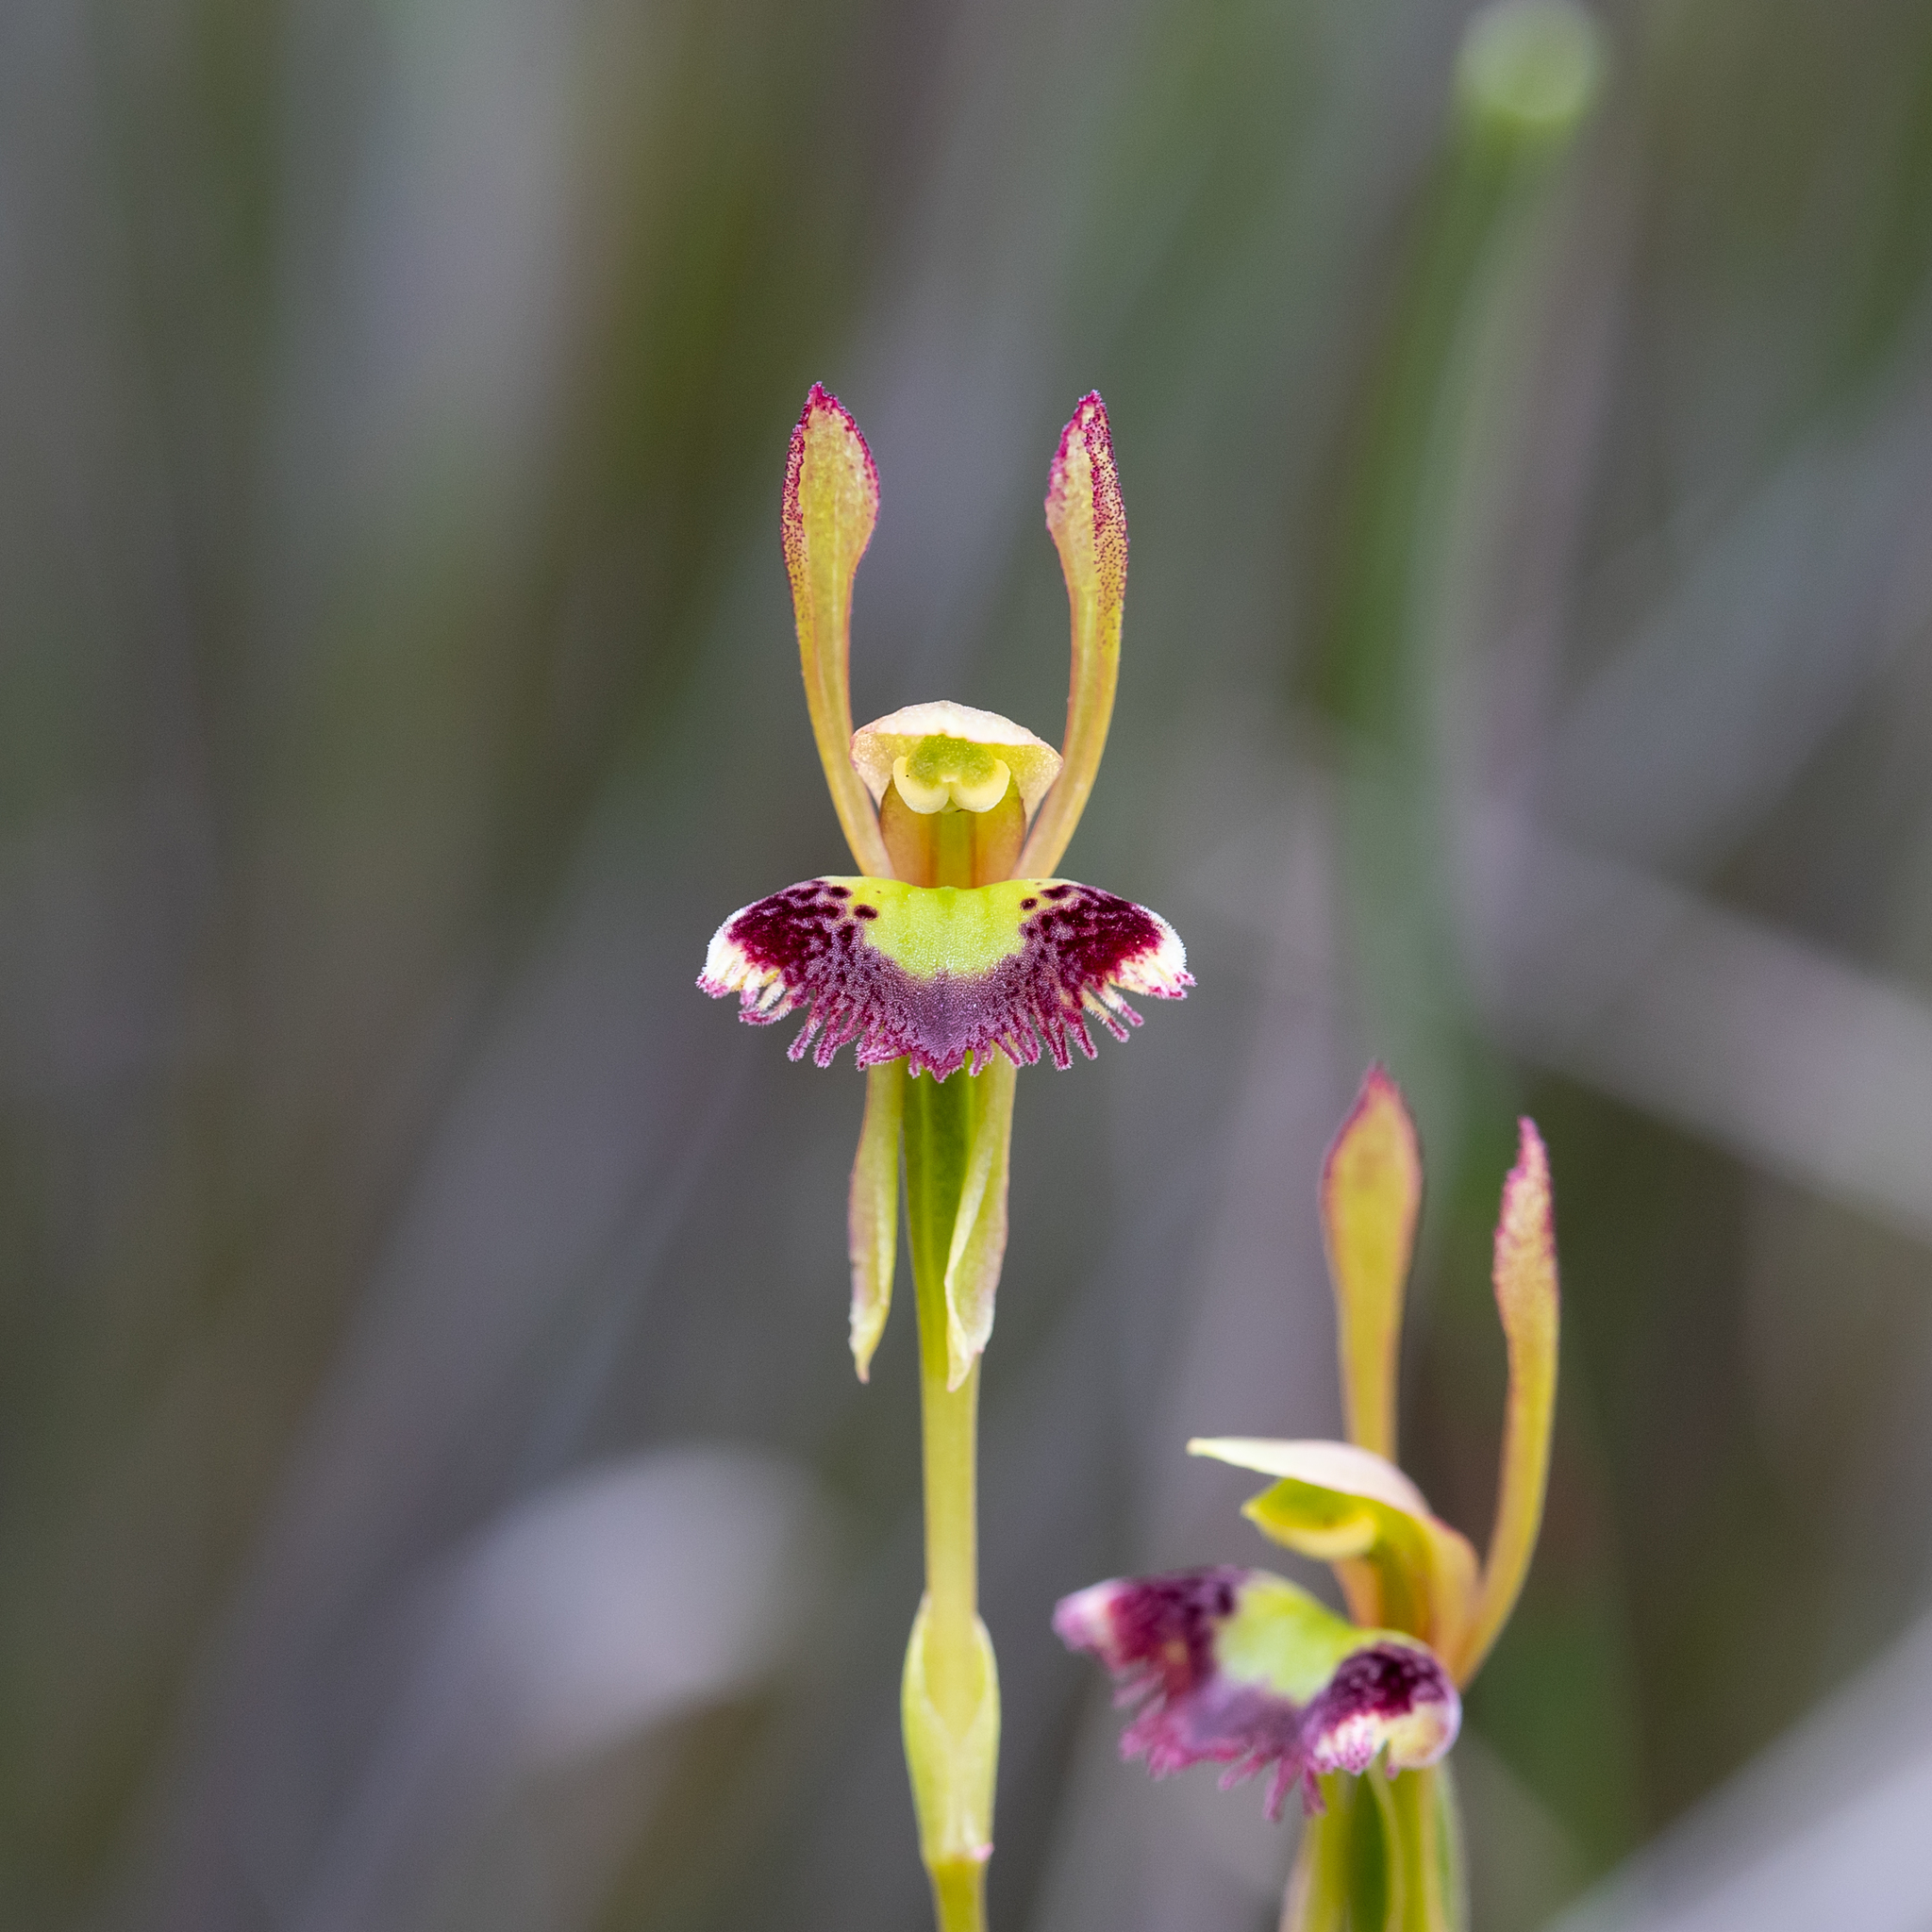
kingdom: Plantae
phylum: Tracheophyta
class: Liliopsida
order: Asparagales
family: Orchidaceae
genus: Leporella
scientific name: Leporella fimbriata
